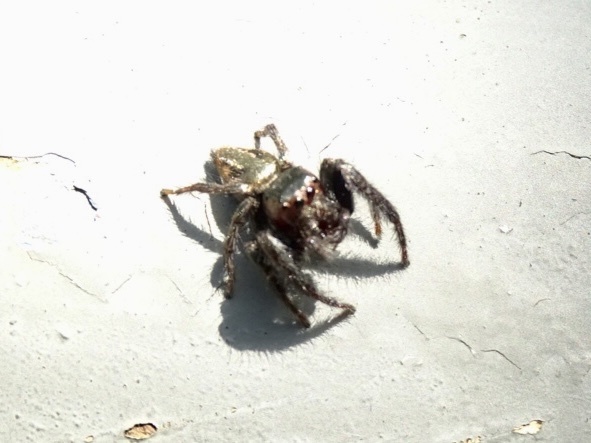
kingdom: Animalia
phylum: Arthropoda
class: Arachnida
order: Araneae
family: Salticidae
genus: Carrhotus
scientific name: Carrhotus viduus
